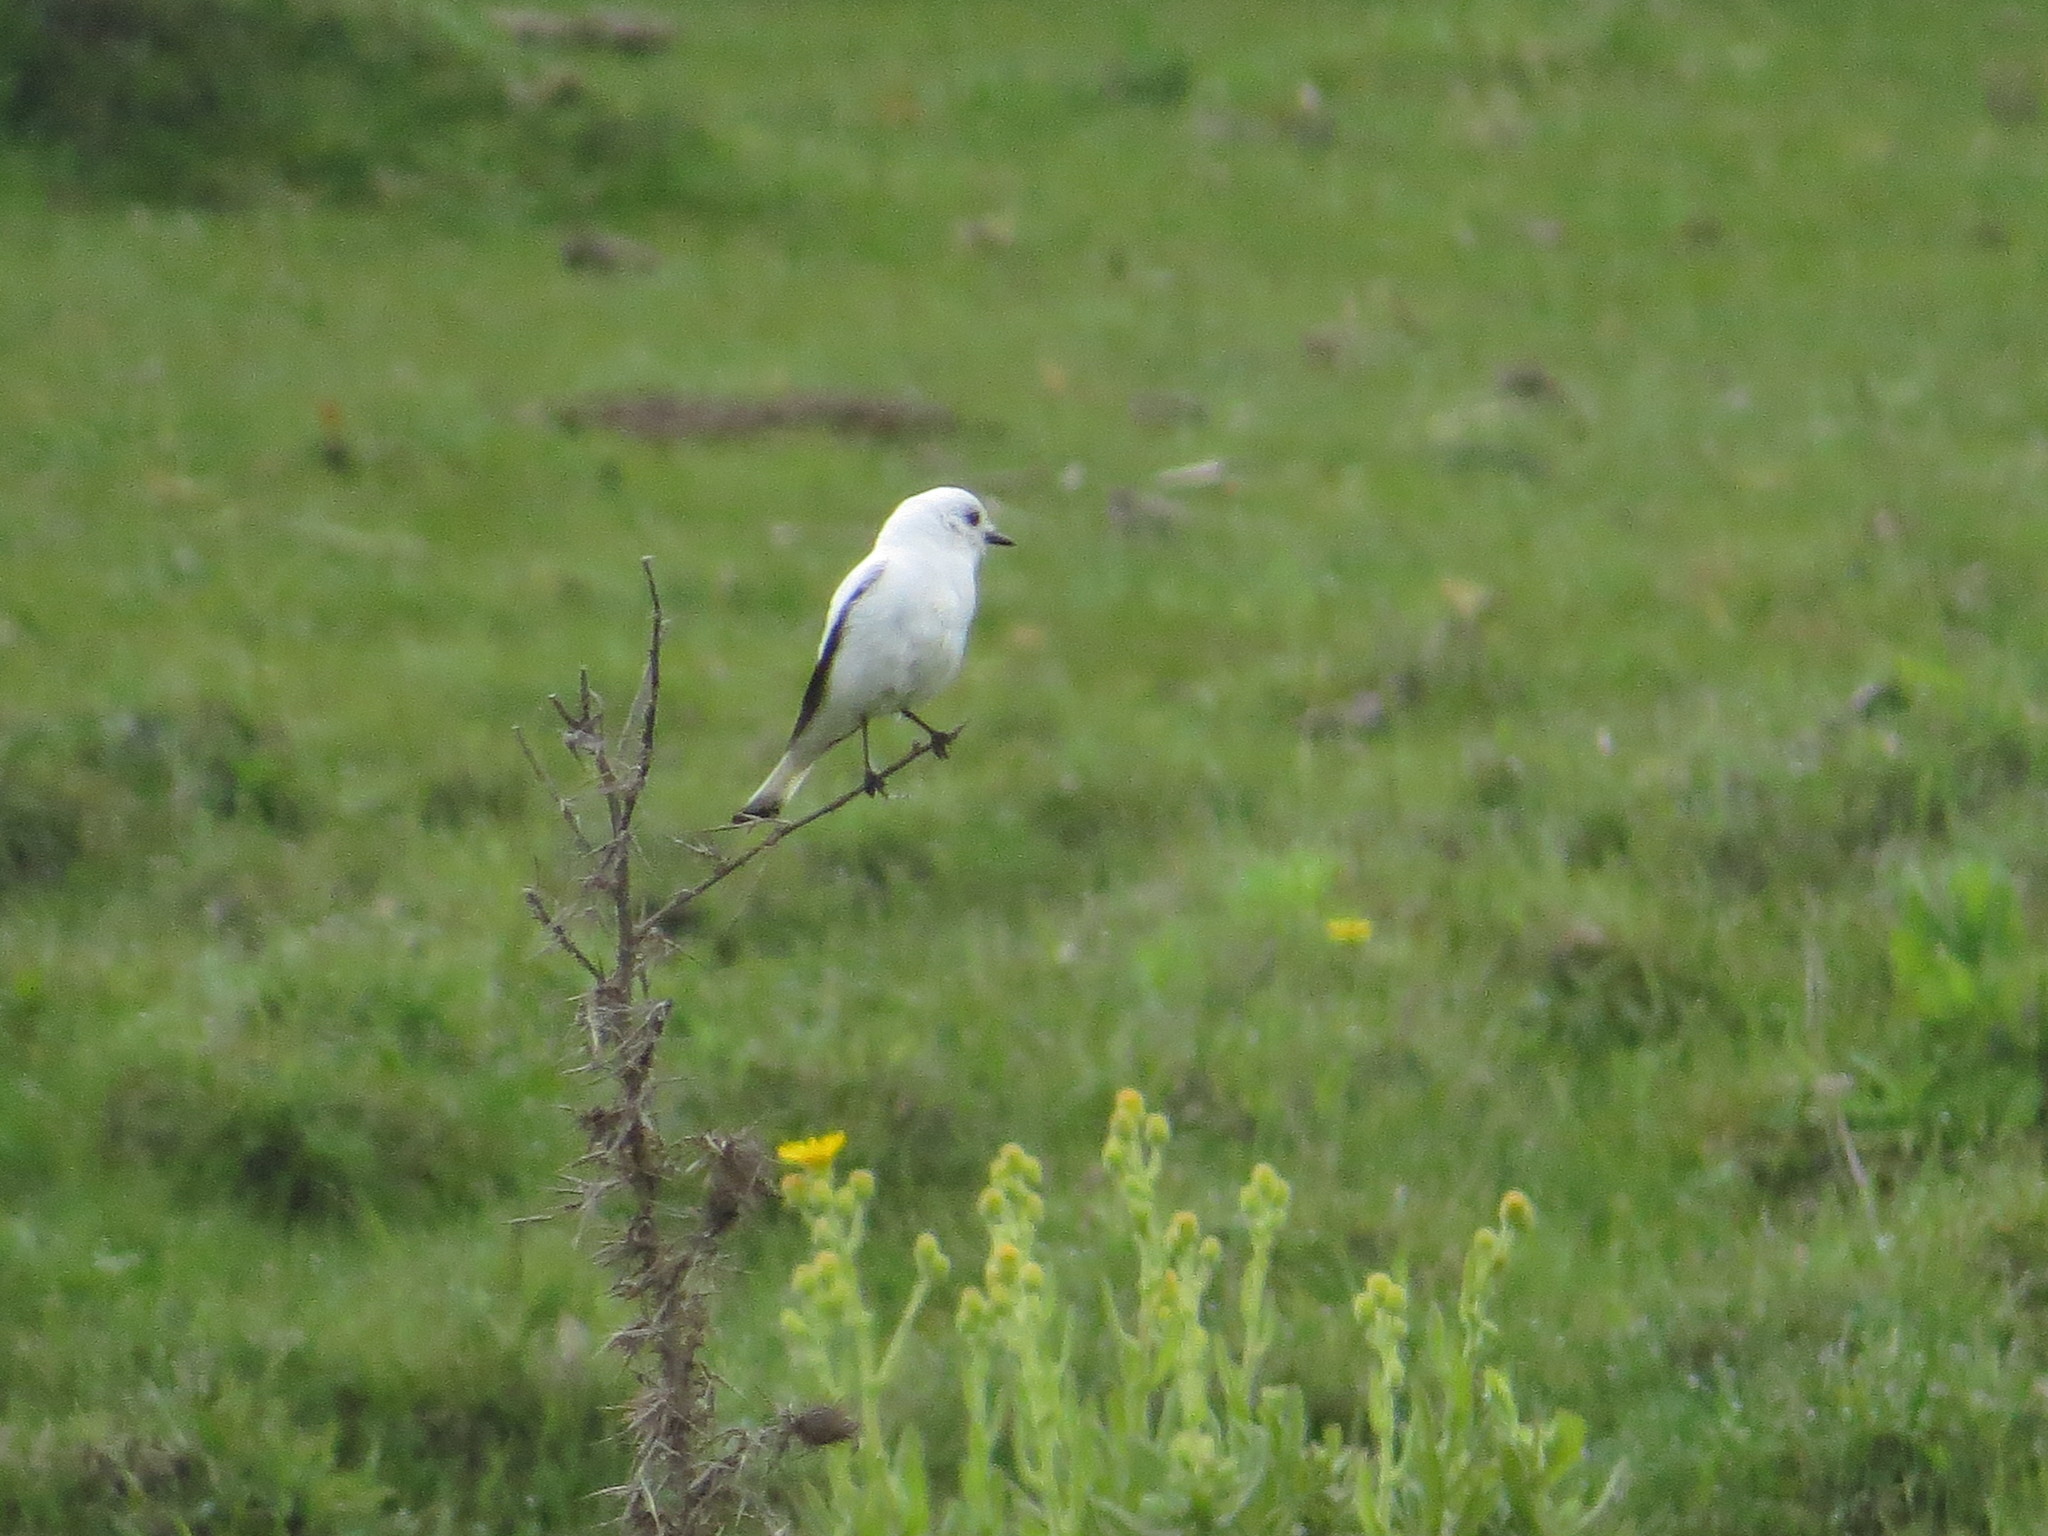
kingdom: Animalia
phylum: Chordata
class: Aves
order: Passeriformes
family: Tyrannidae
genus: Xolmis
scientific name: Xolmis irupero
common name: White monjita
